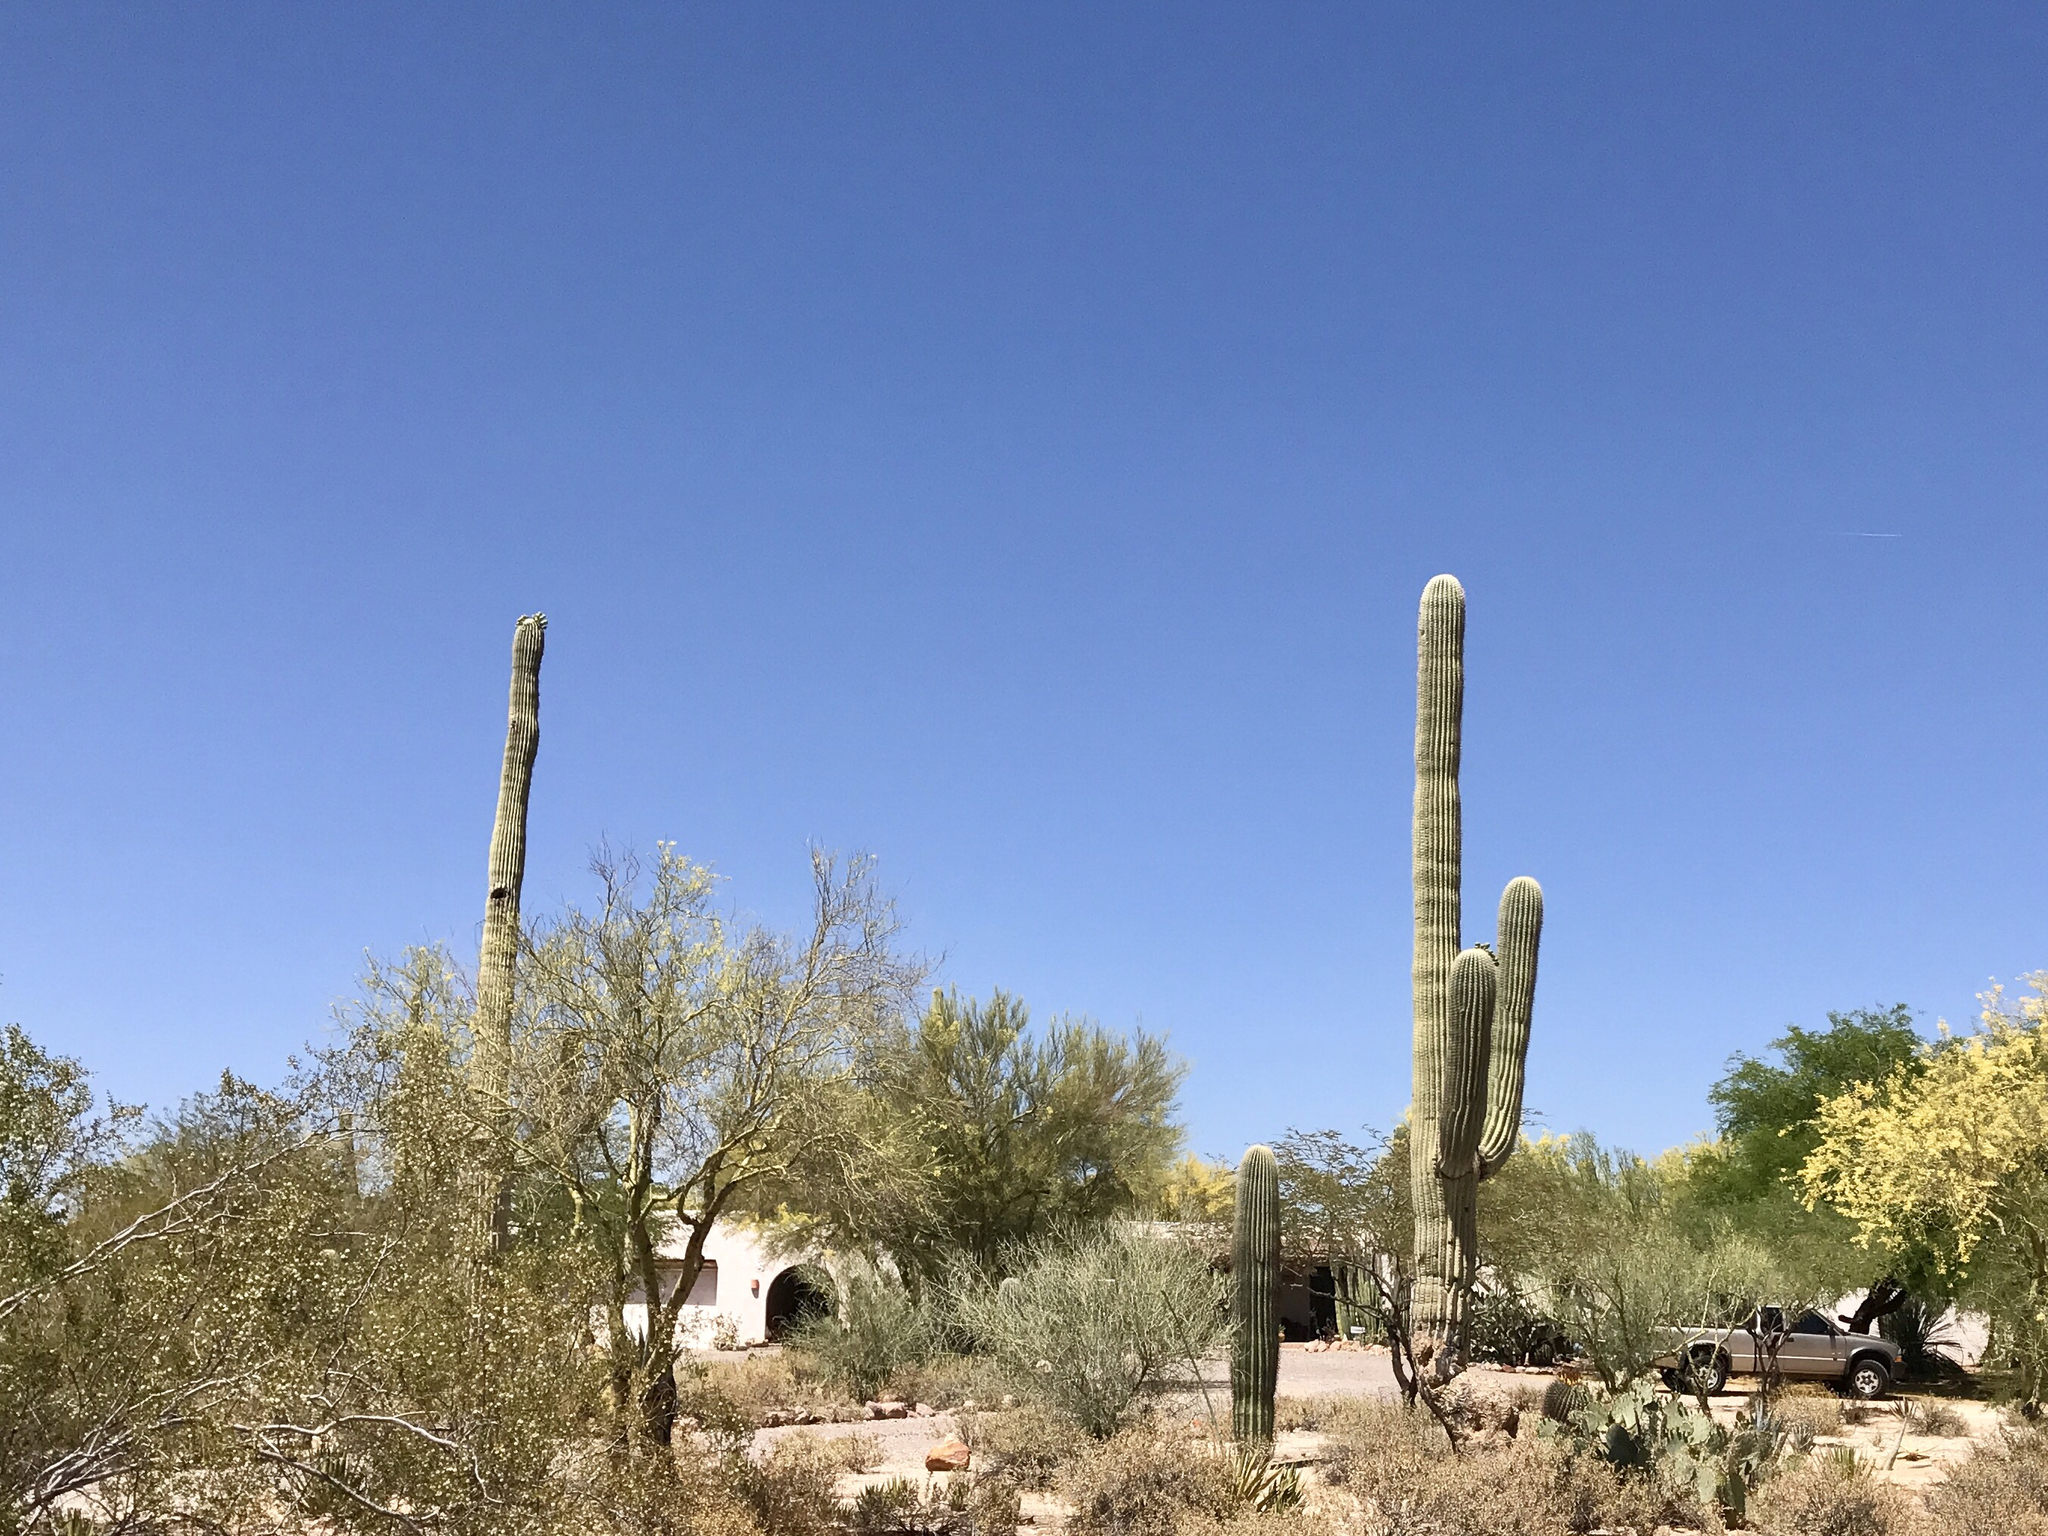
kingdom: Plantae
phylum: Tracheophyta
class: Magnoliopsida
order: Caryophyllales
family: Cactaceae
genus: Carnegiea
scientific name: Carnegiea gigantea
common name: Saguaro
